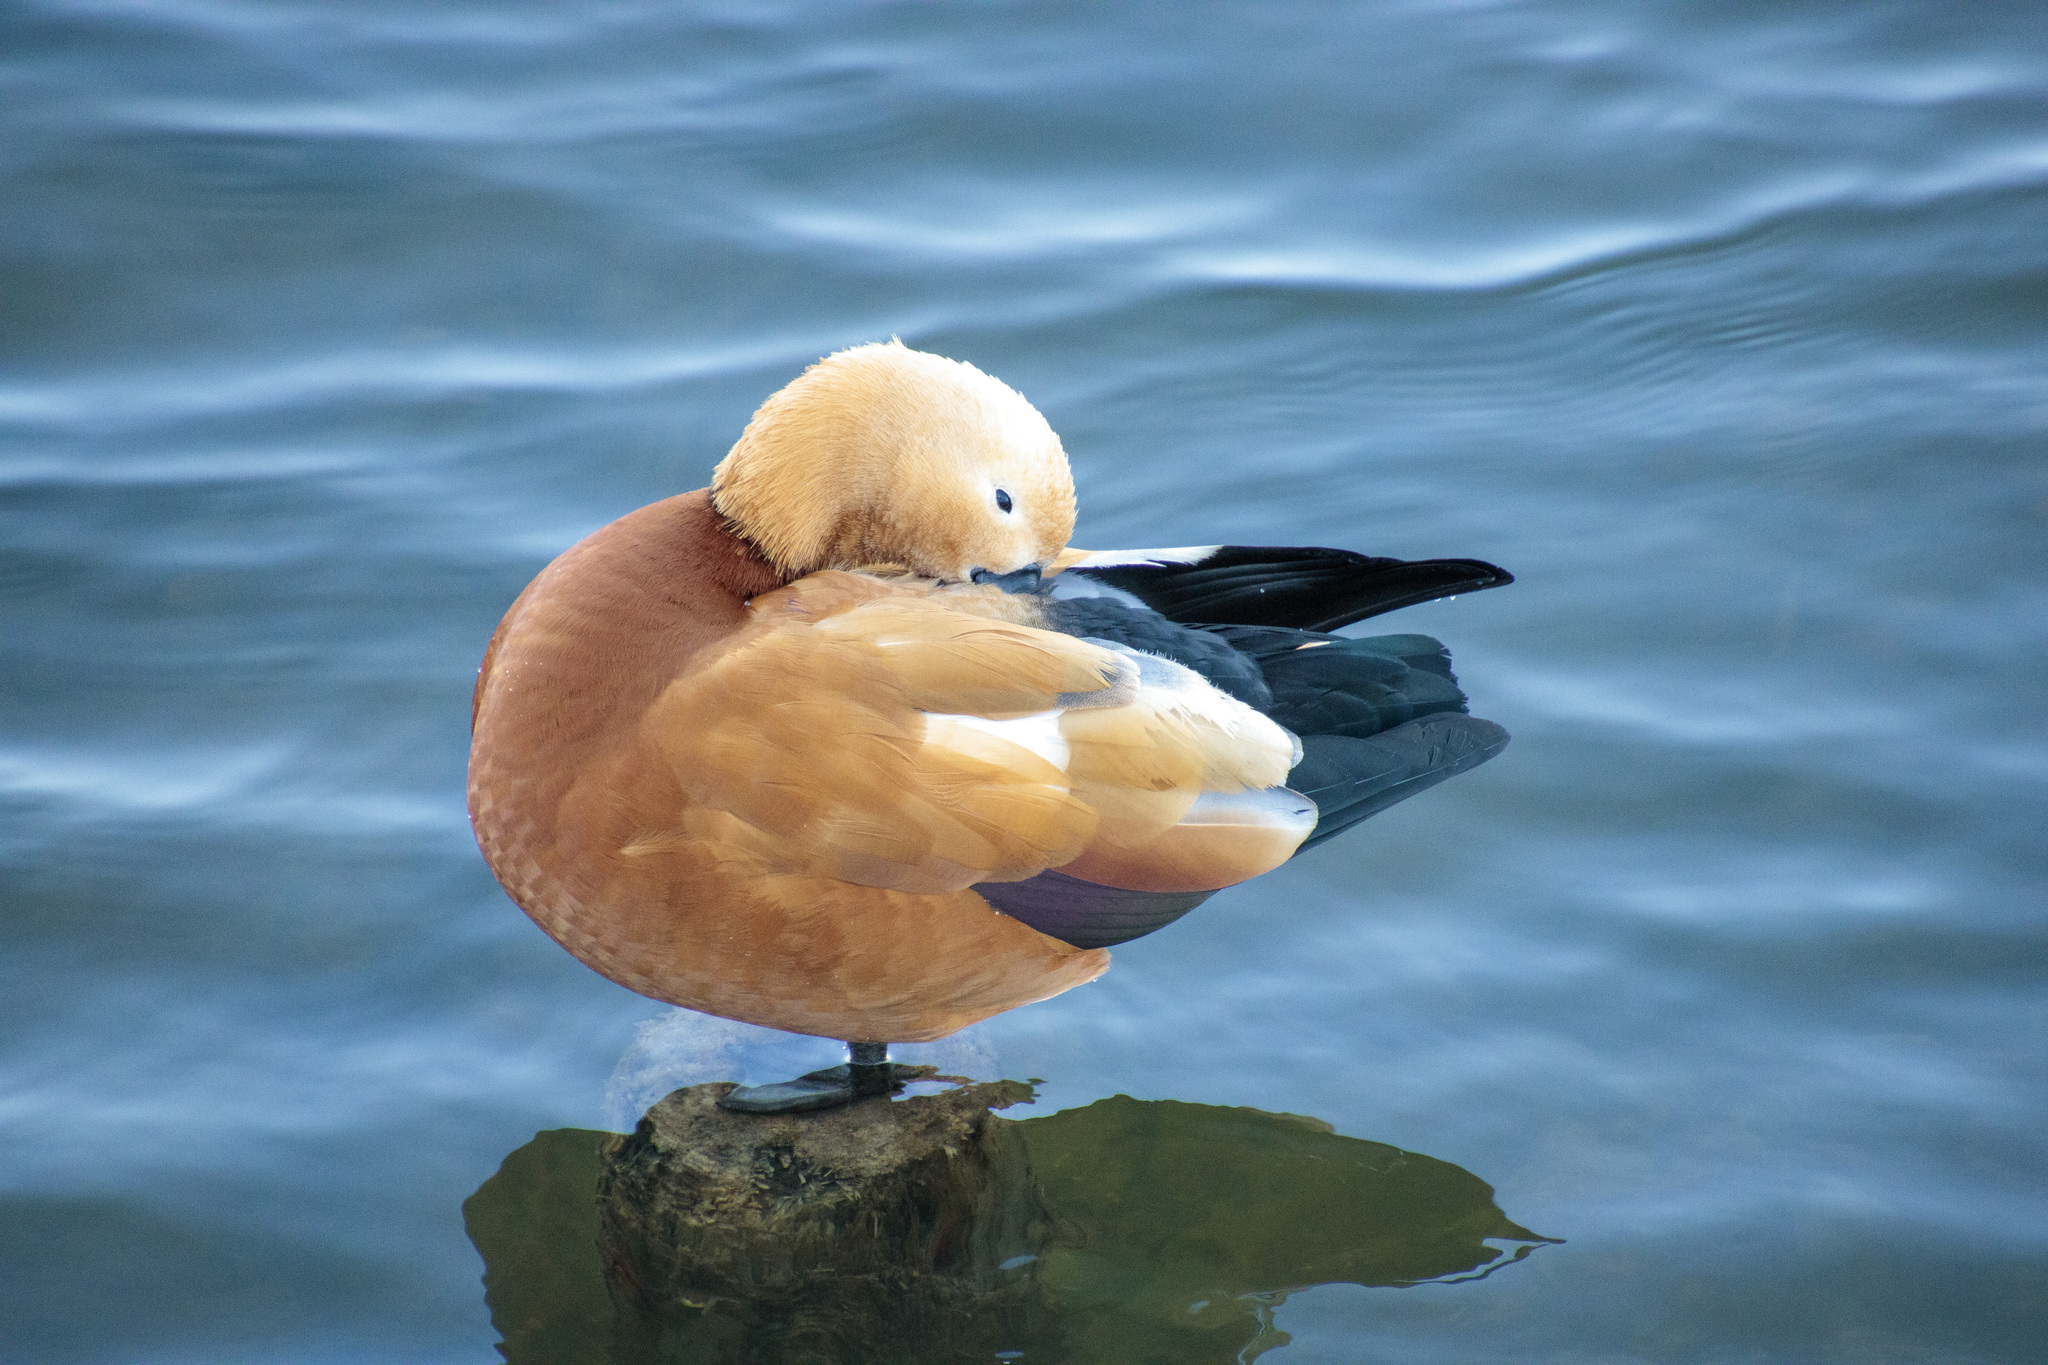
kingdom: Animalia
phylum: Chordata
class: Aves
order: Anseriformes
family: Anatidae
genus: Tadorna
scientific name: Tadorna ferruginea
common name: Ruddy shelduck
